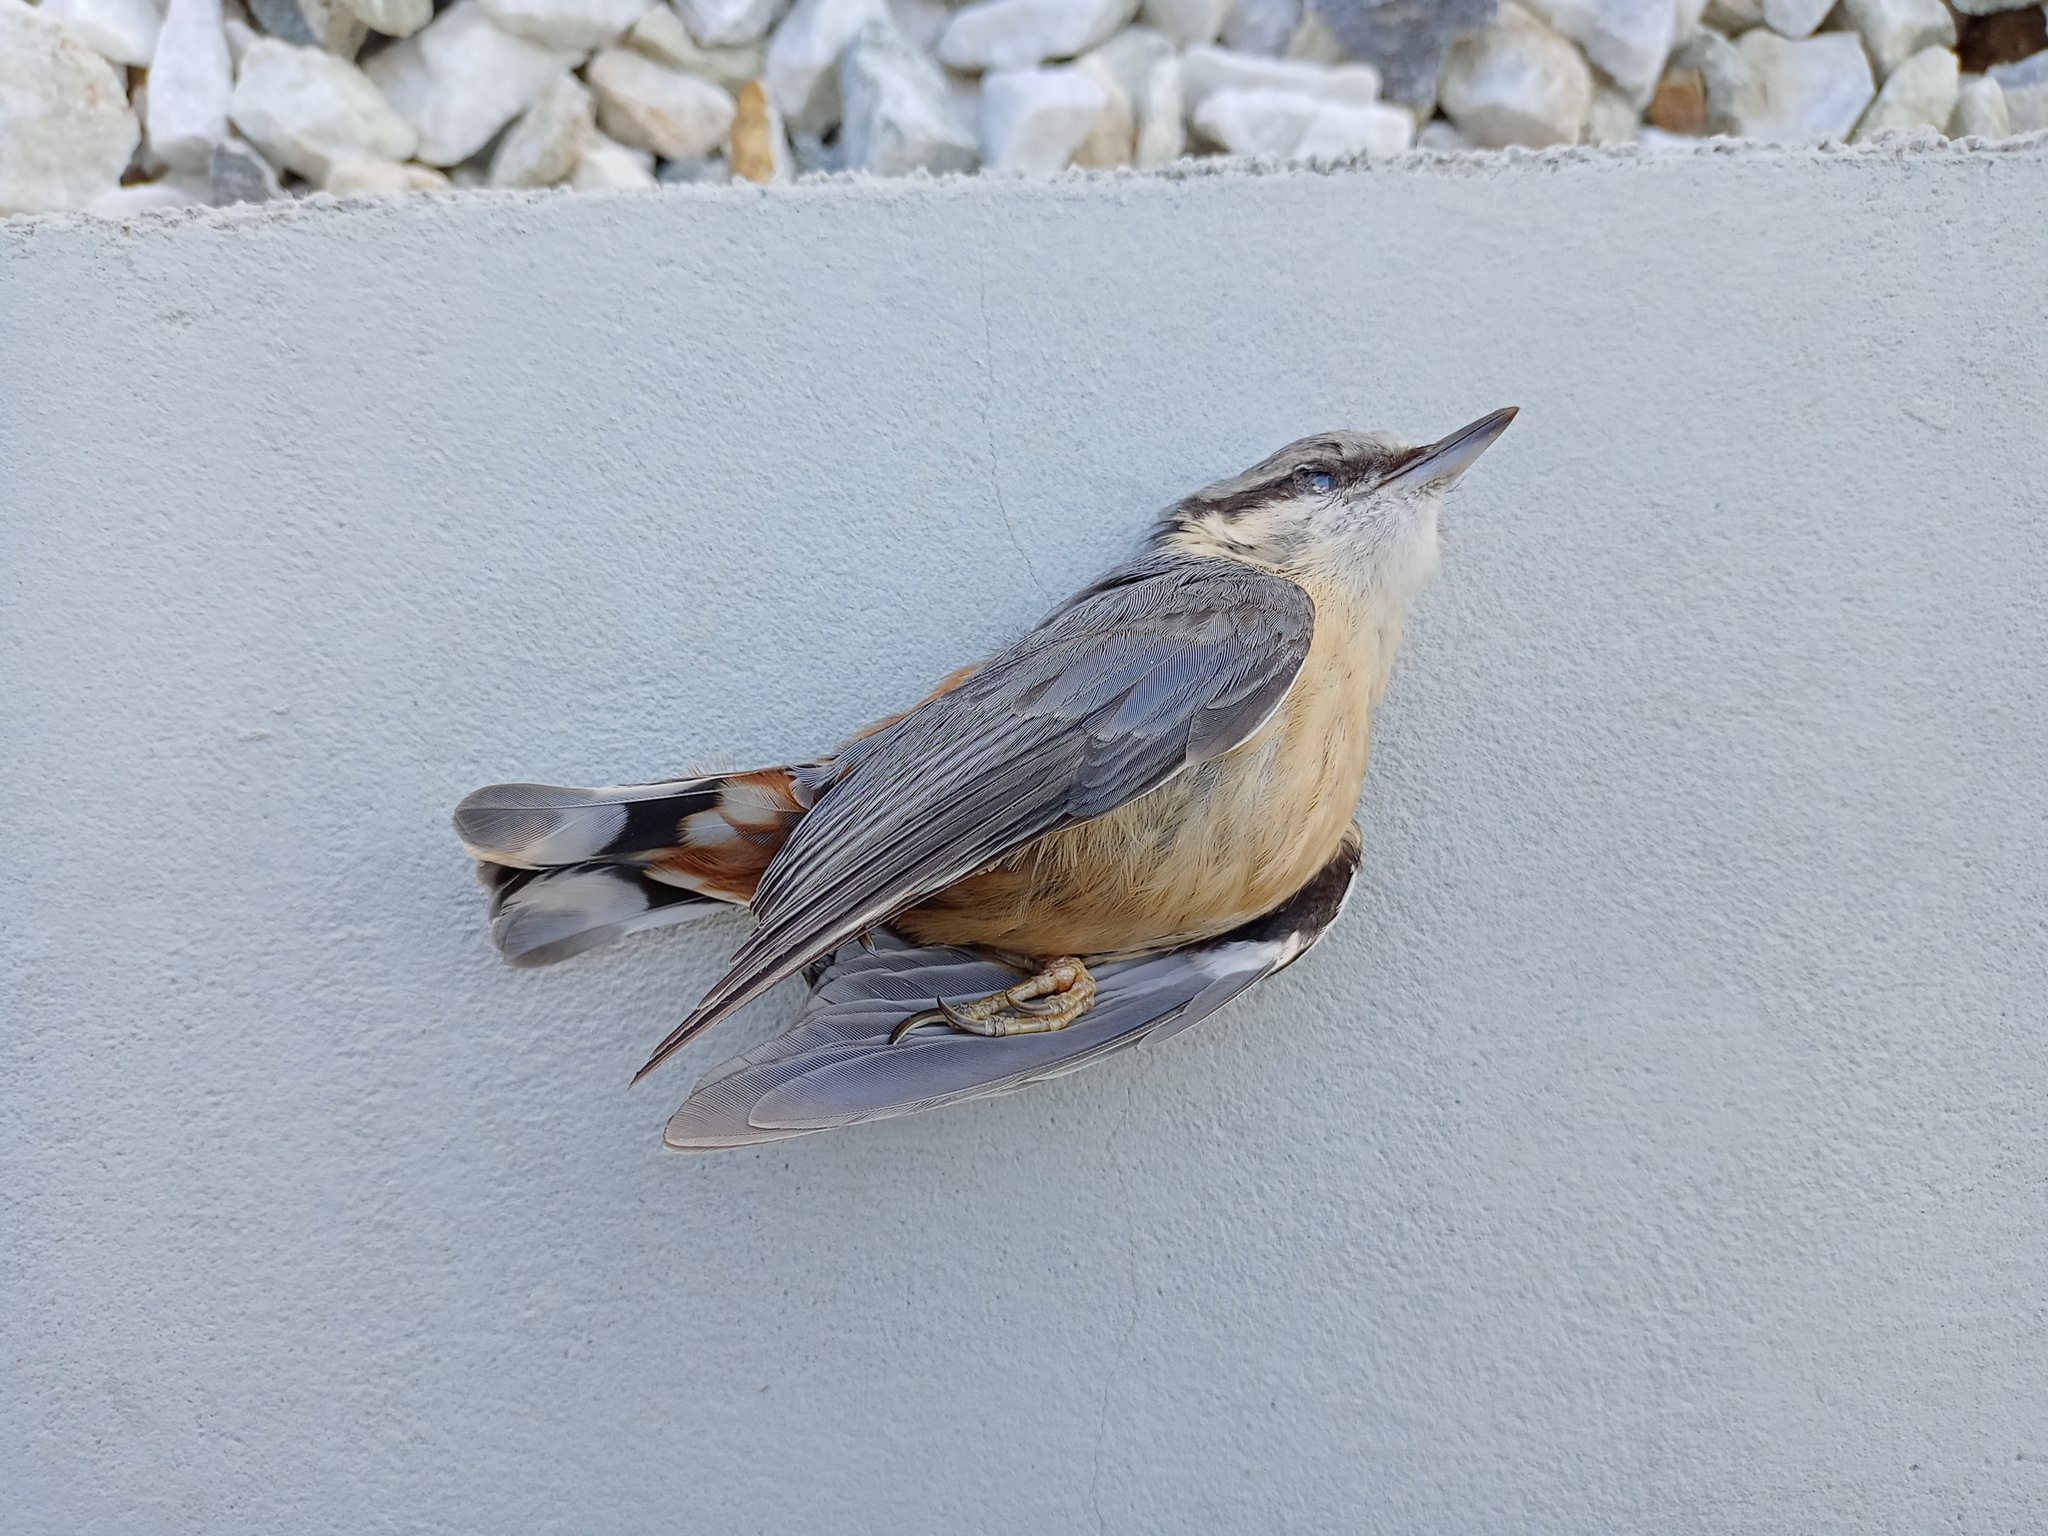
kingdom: Animalia
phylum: Chordata
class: Aves
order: Passeriformes
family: Sittidae
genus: Sitta
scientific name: Sitta europaea
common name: Eurasian nuthatch
